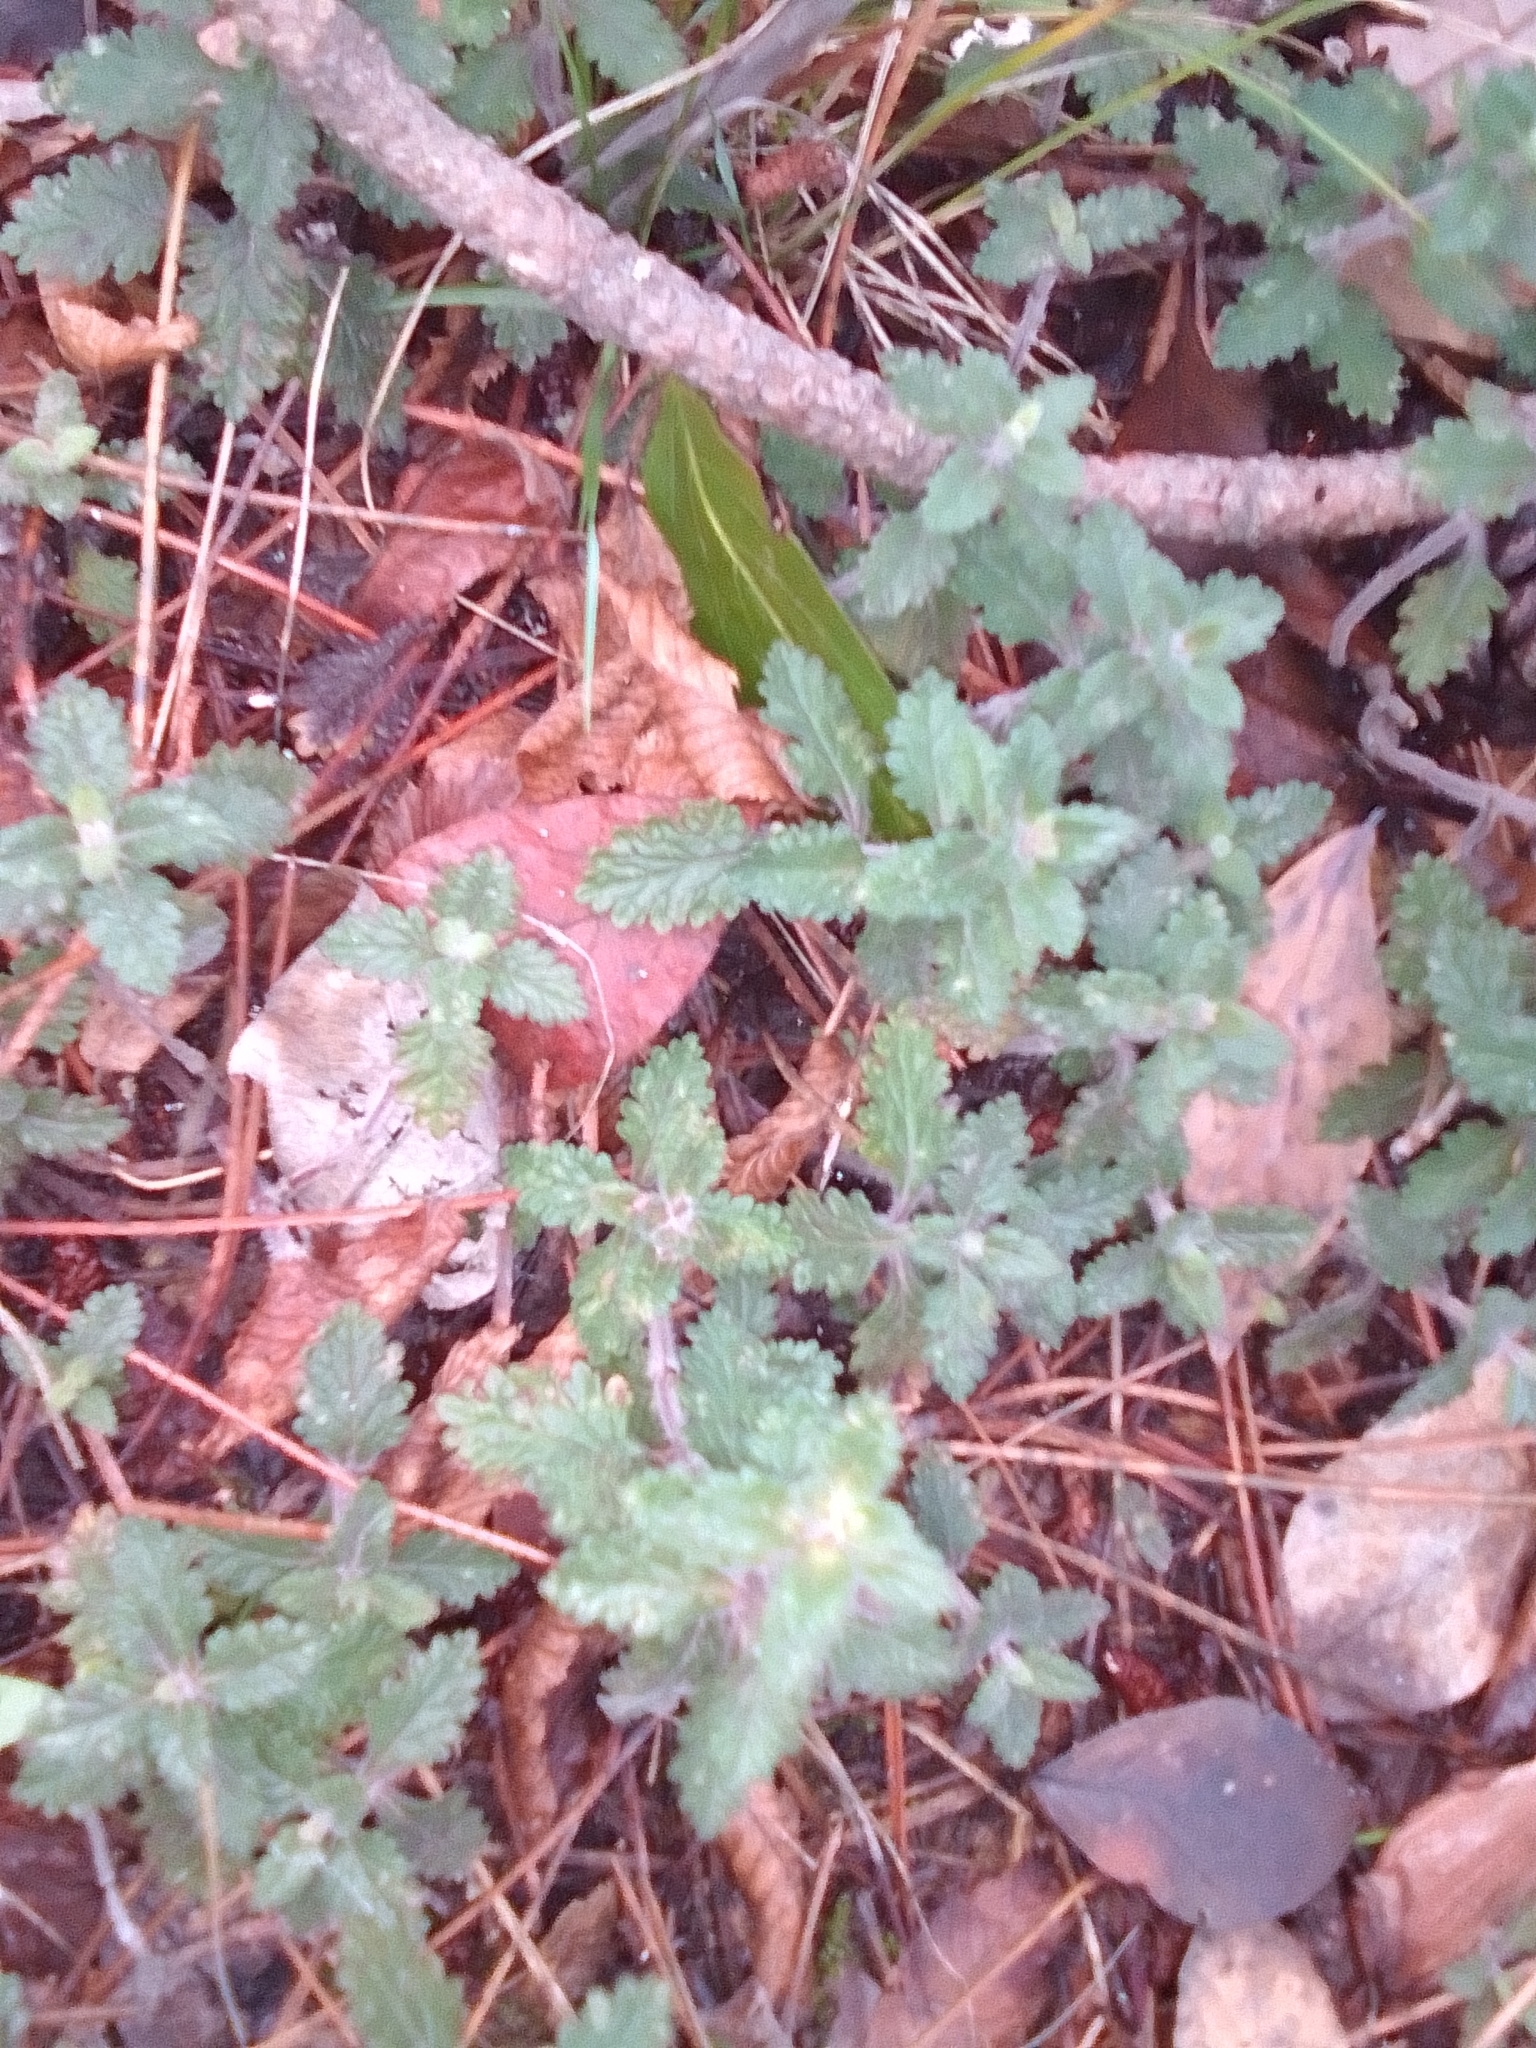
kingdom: Plantae
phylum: Tracheophyta
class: Magnoliopsida
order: Lamiales
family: Lamiaceae
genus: Teucrium
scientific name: Teucrium chamaedrys
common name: Wall germander
